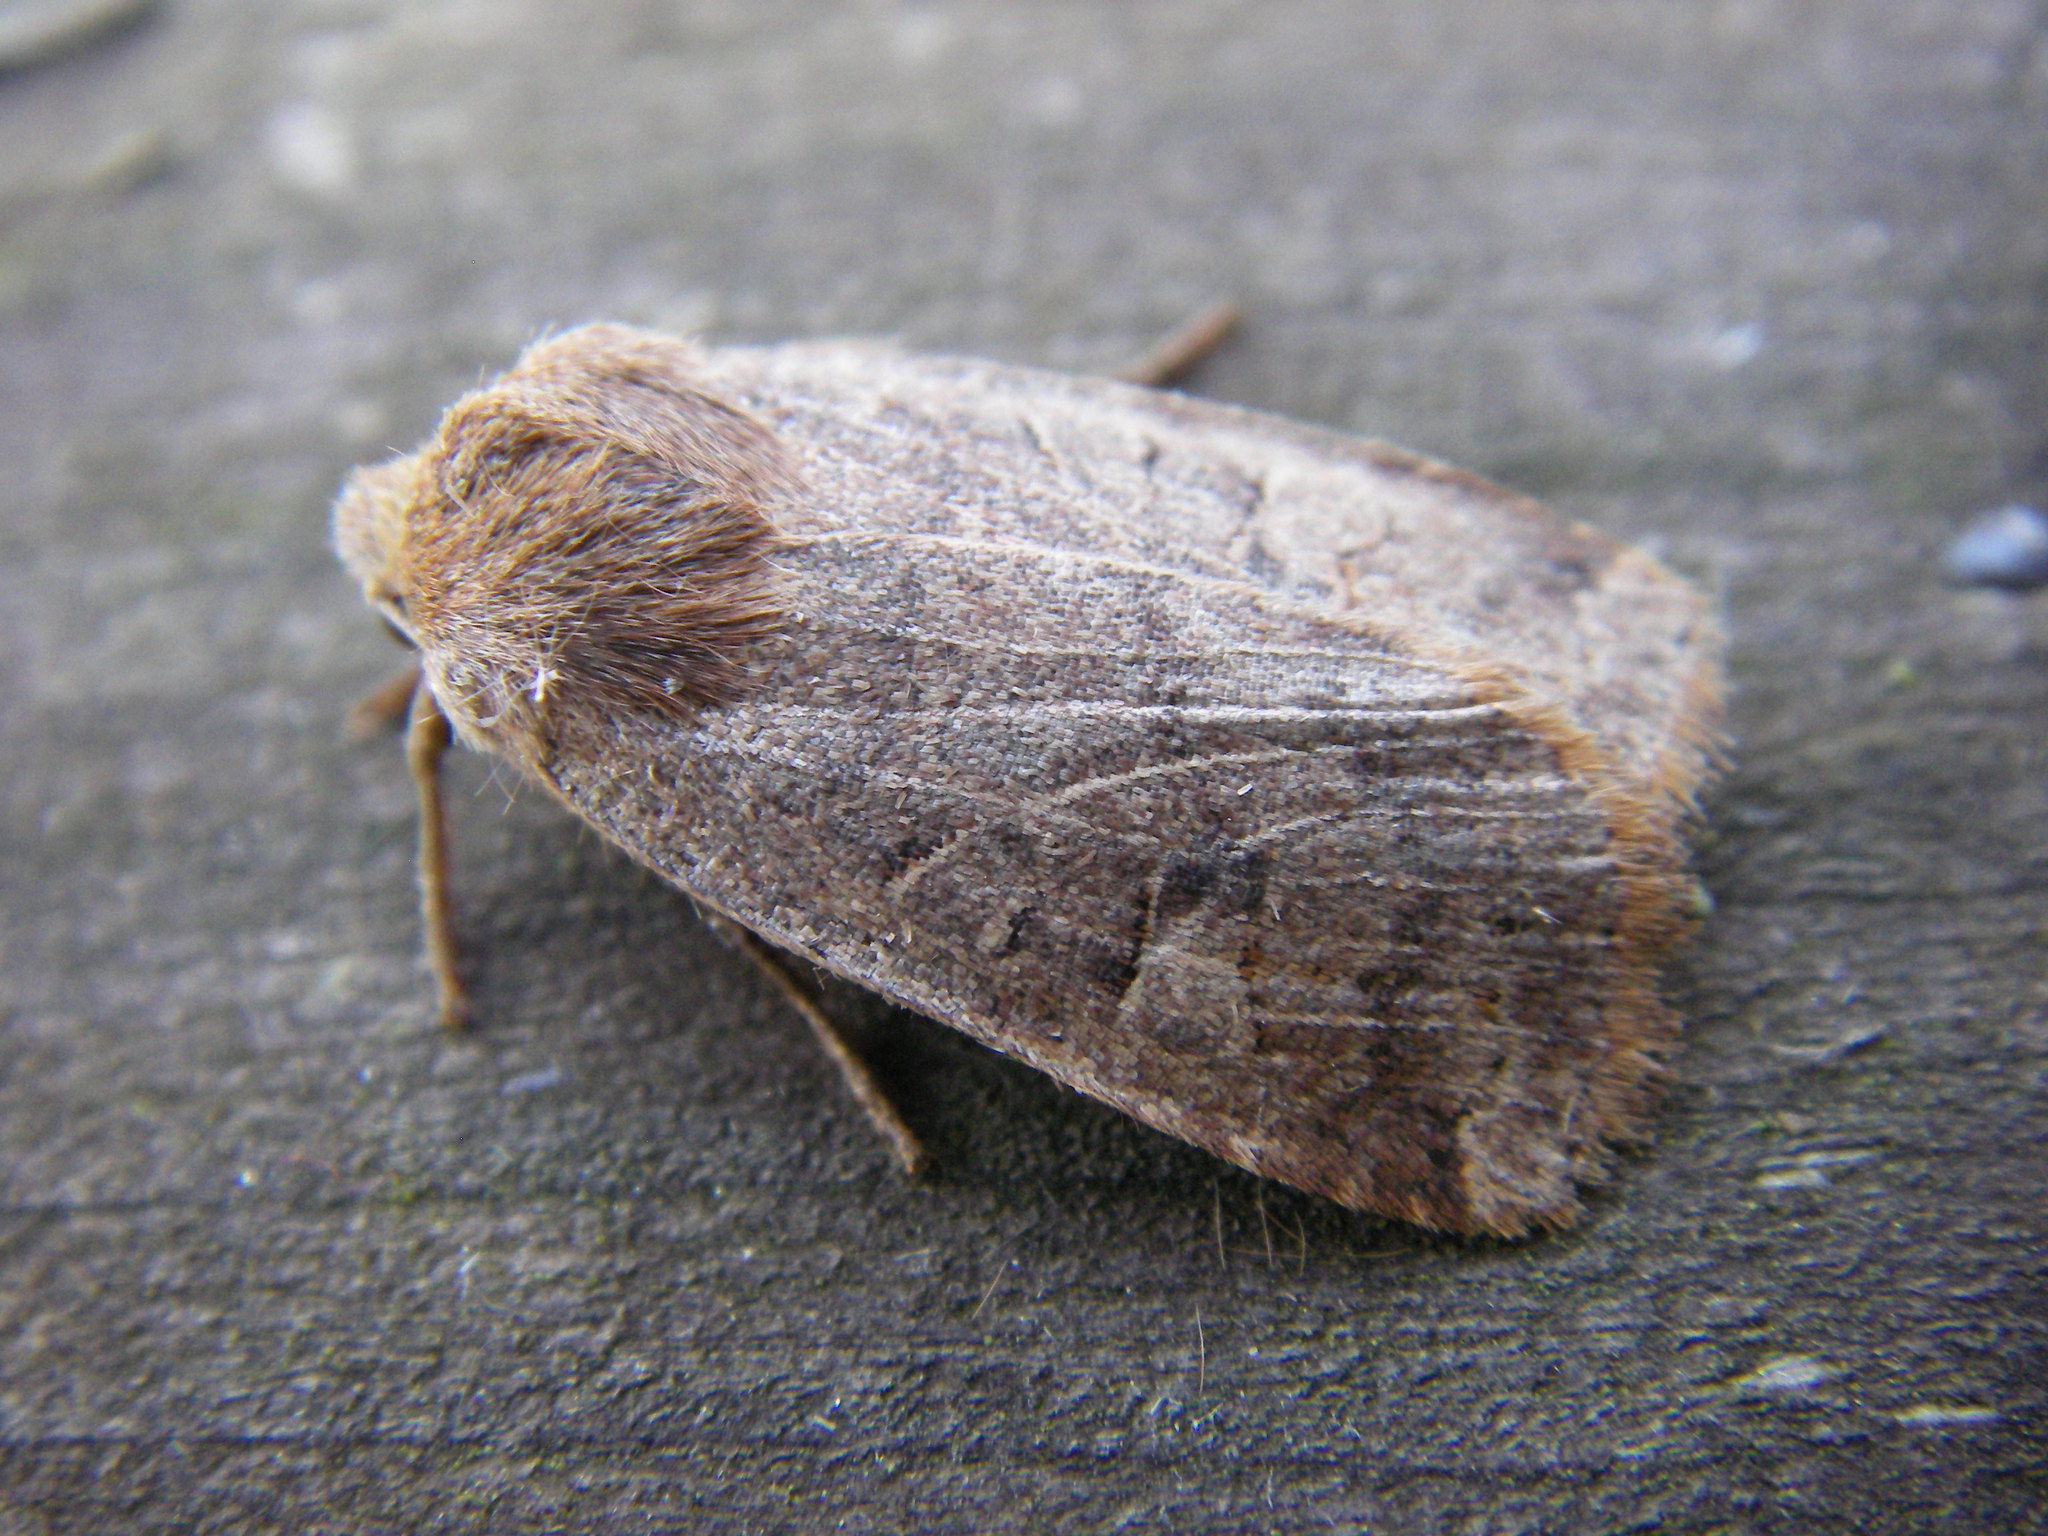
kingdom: Animalia
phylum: Arthropoda
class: Insecta
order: Lepidoptera
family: Noctuidae
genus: Conistra
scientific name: Conistra vaccinii
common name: Chestnut
